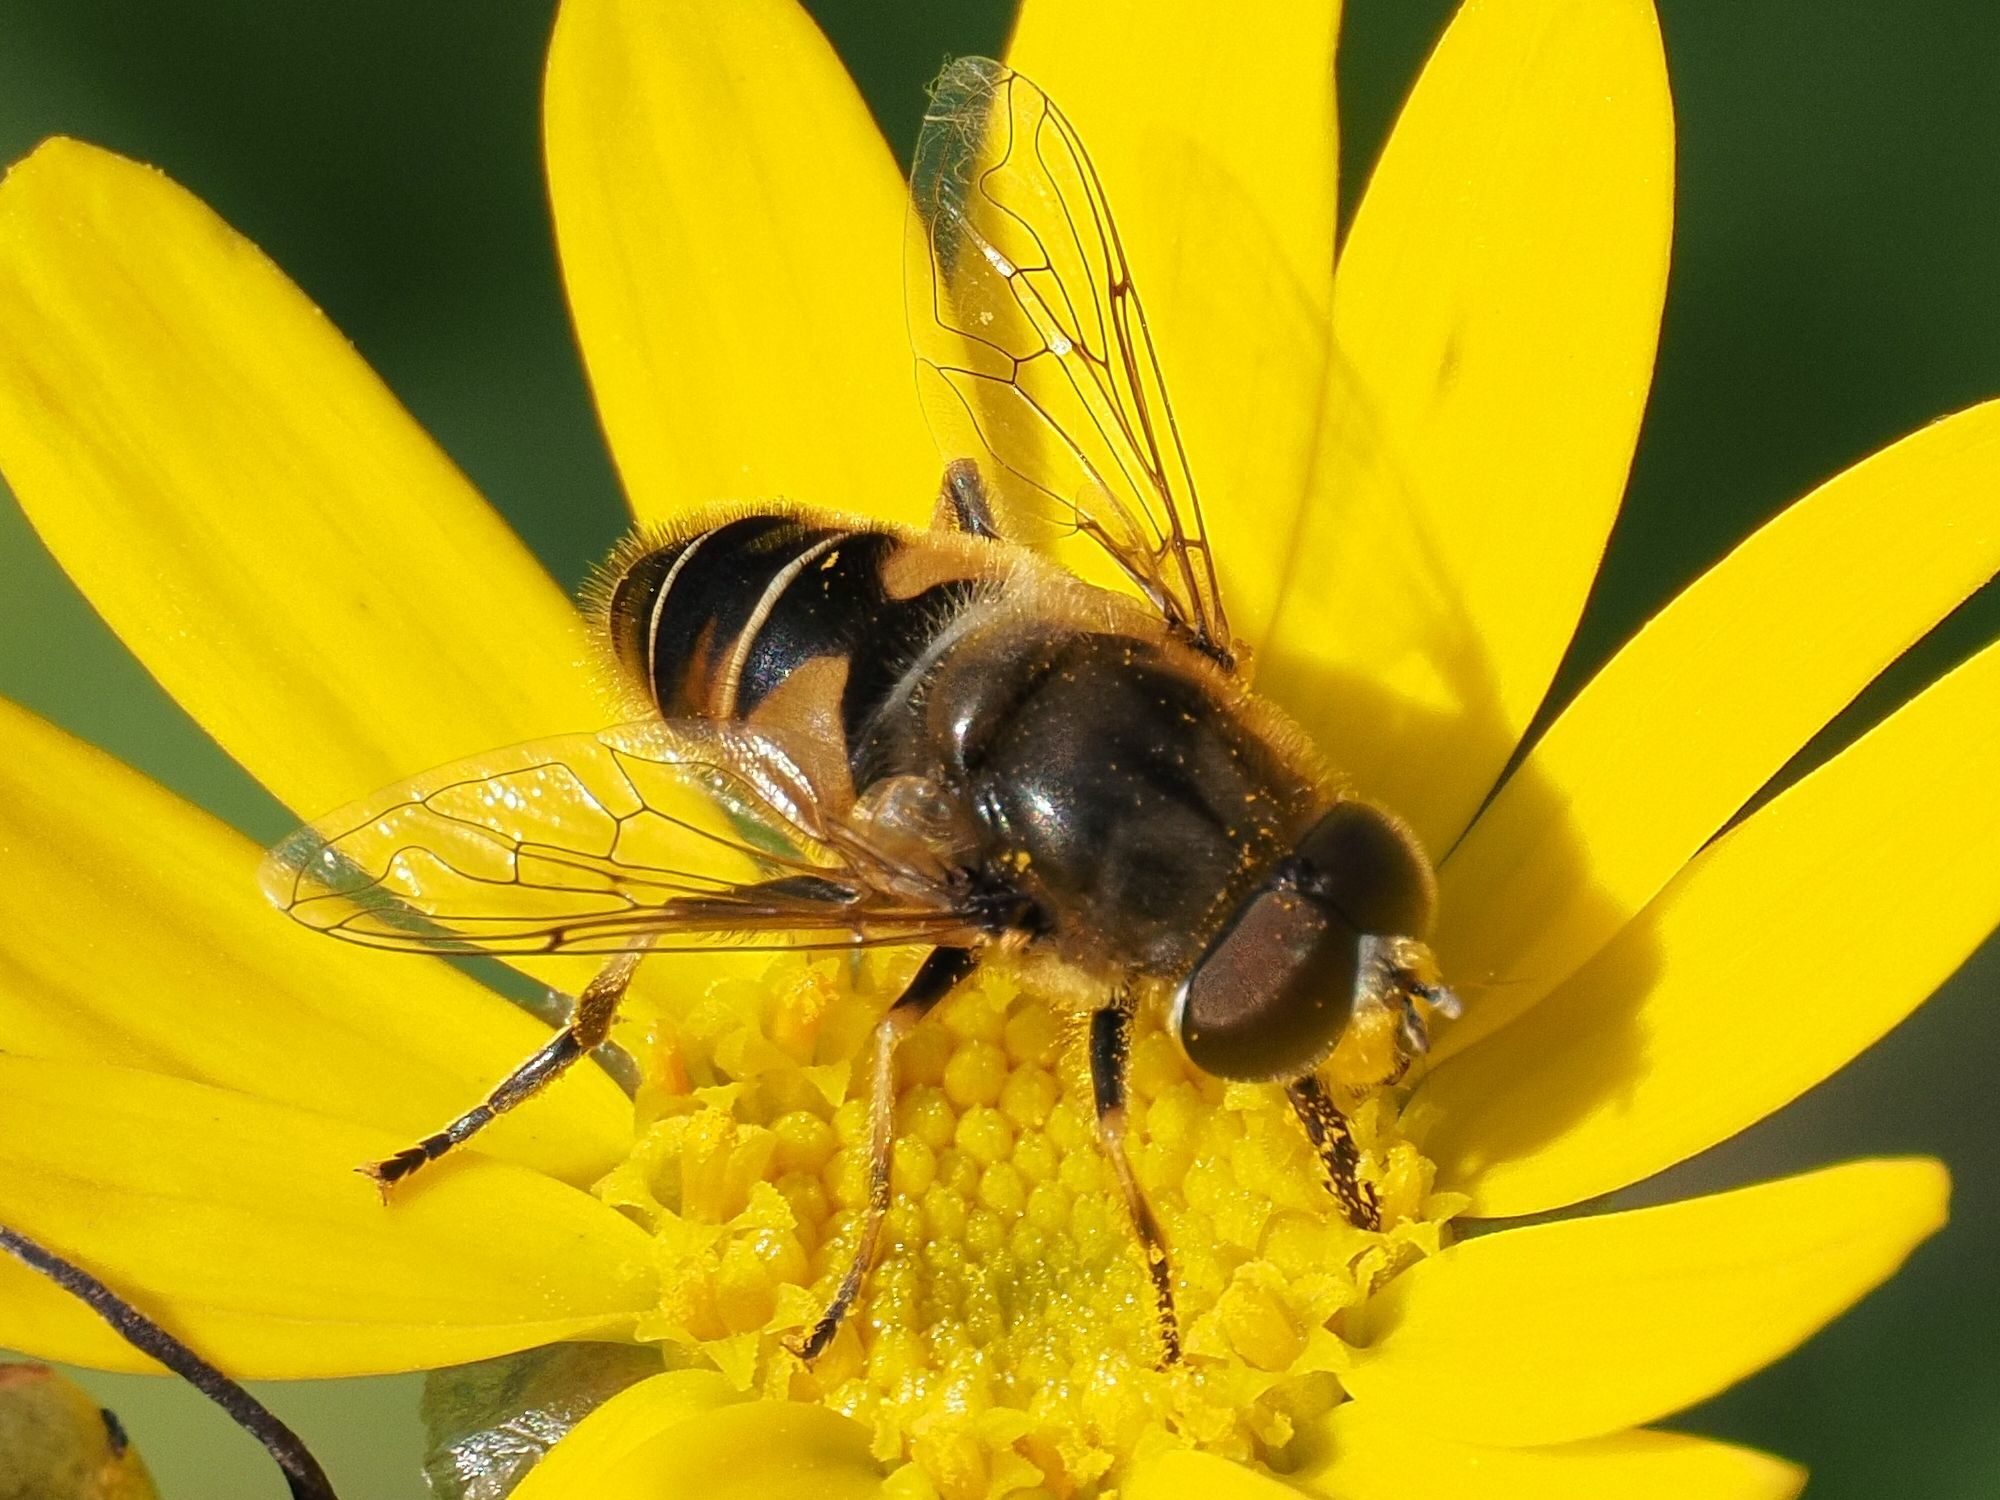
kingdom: Animalia
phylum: Arthropoda
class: Insecta
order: Diptera
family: Syrphidae
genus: Eristalis
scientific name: Eristalis nemorum
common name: Orange-spined drone fly
